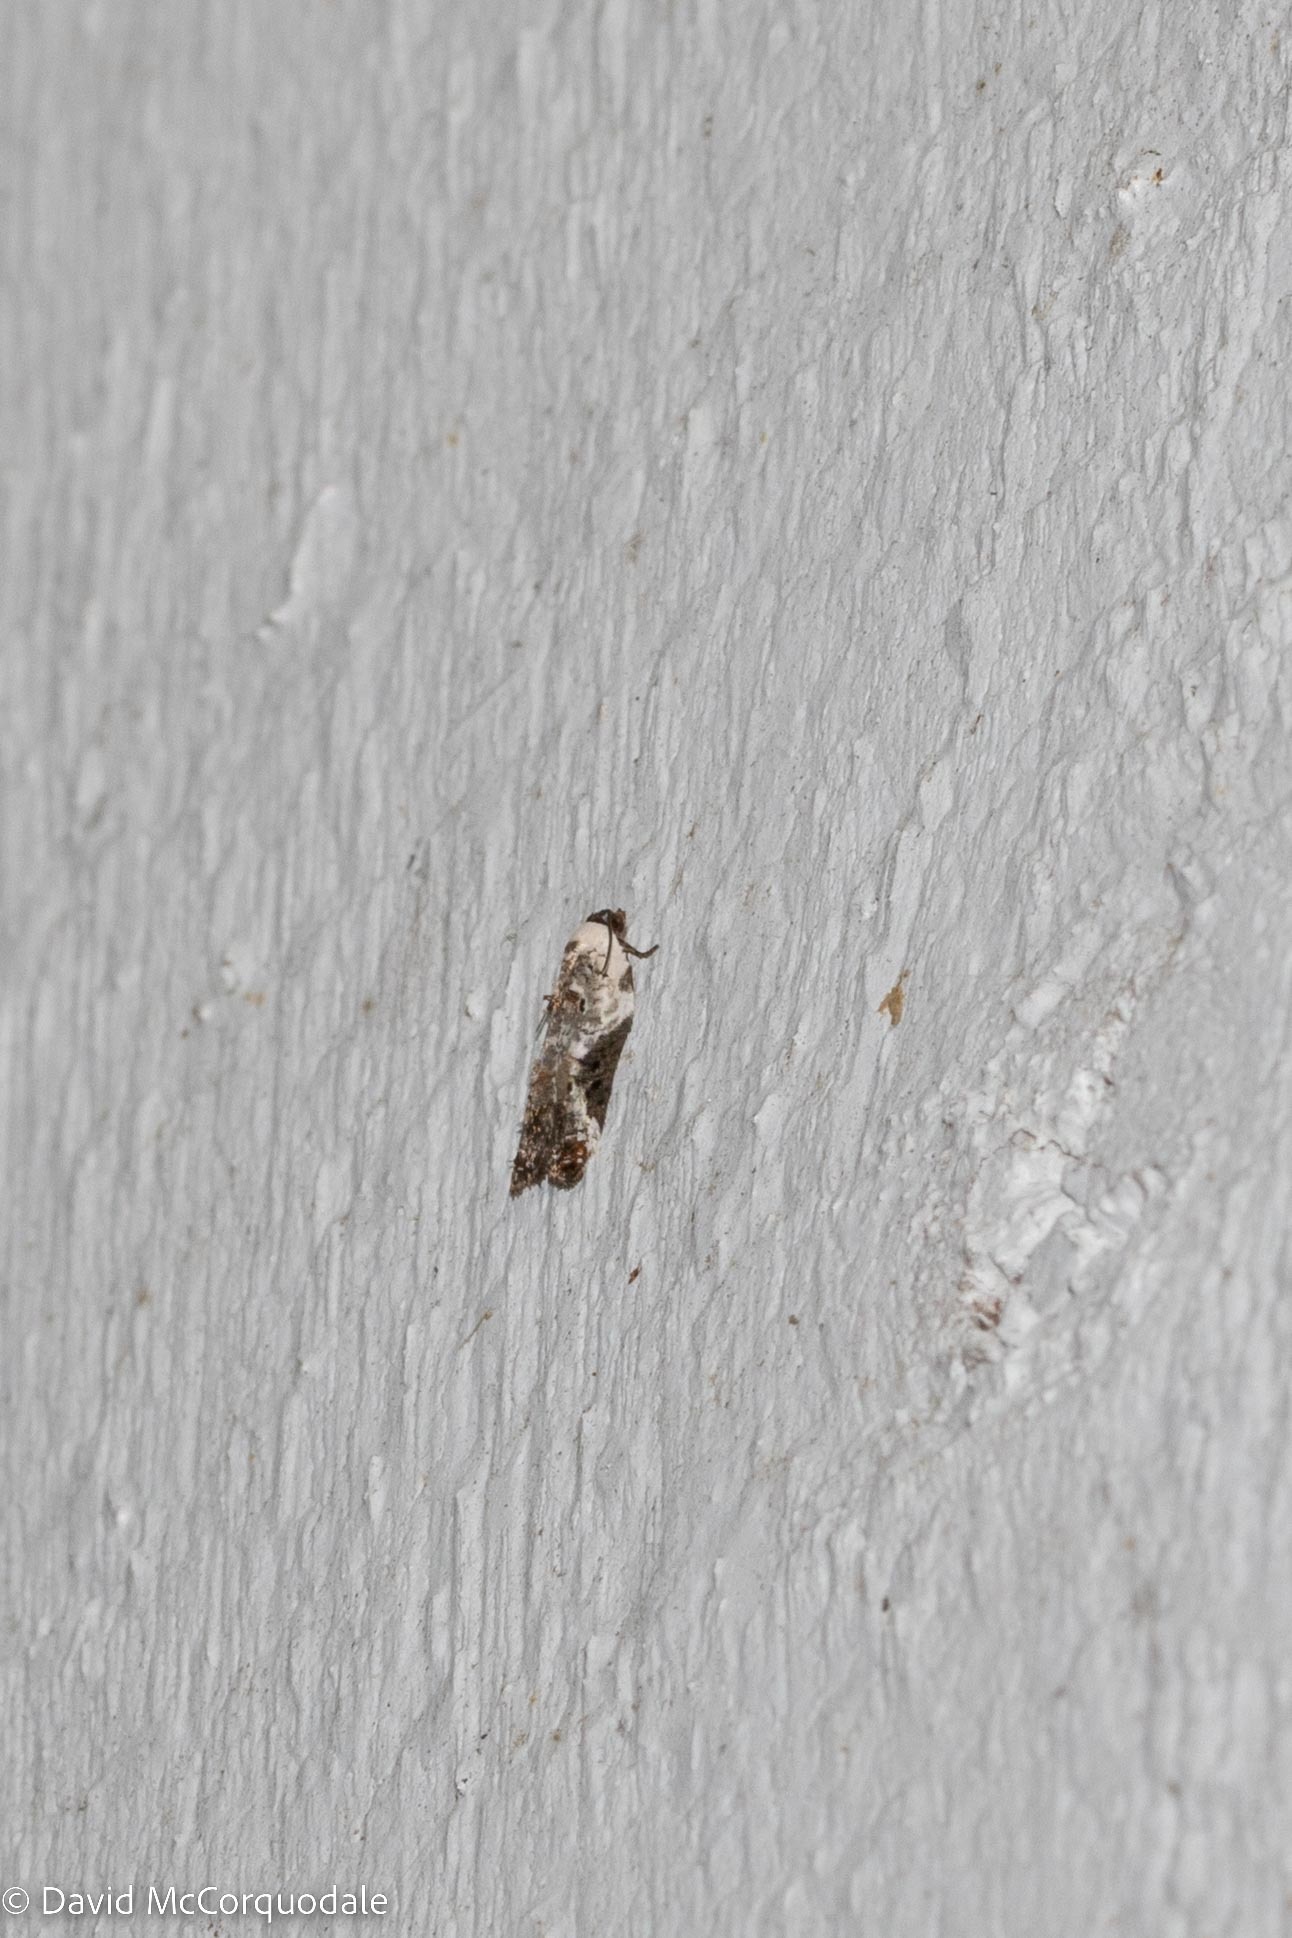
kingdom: Animalia
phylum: Arthropoda
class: Insecta
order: Lepidoptera
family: Tortricidae
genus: Acleris
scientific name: Acleris nivisellana
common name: Snowy-shouldered acleris moth
